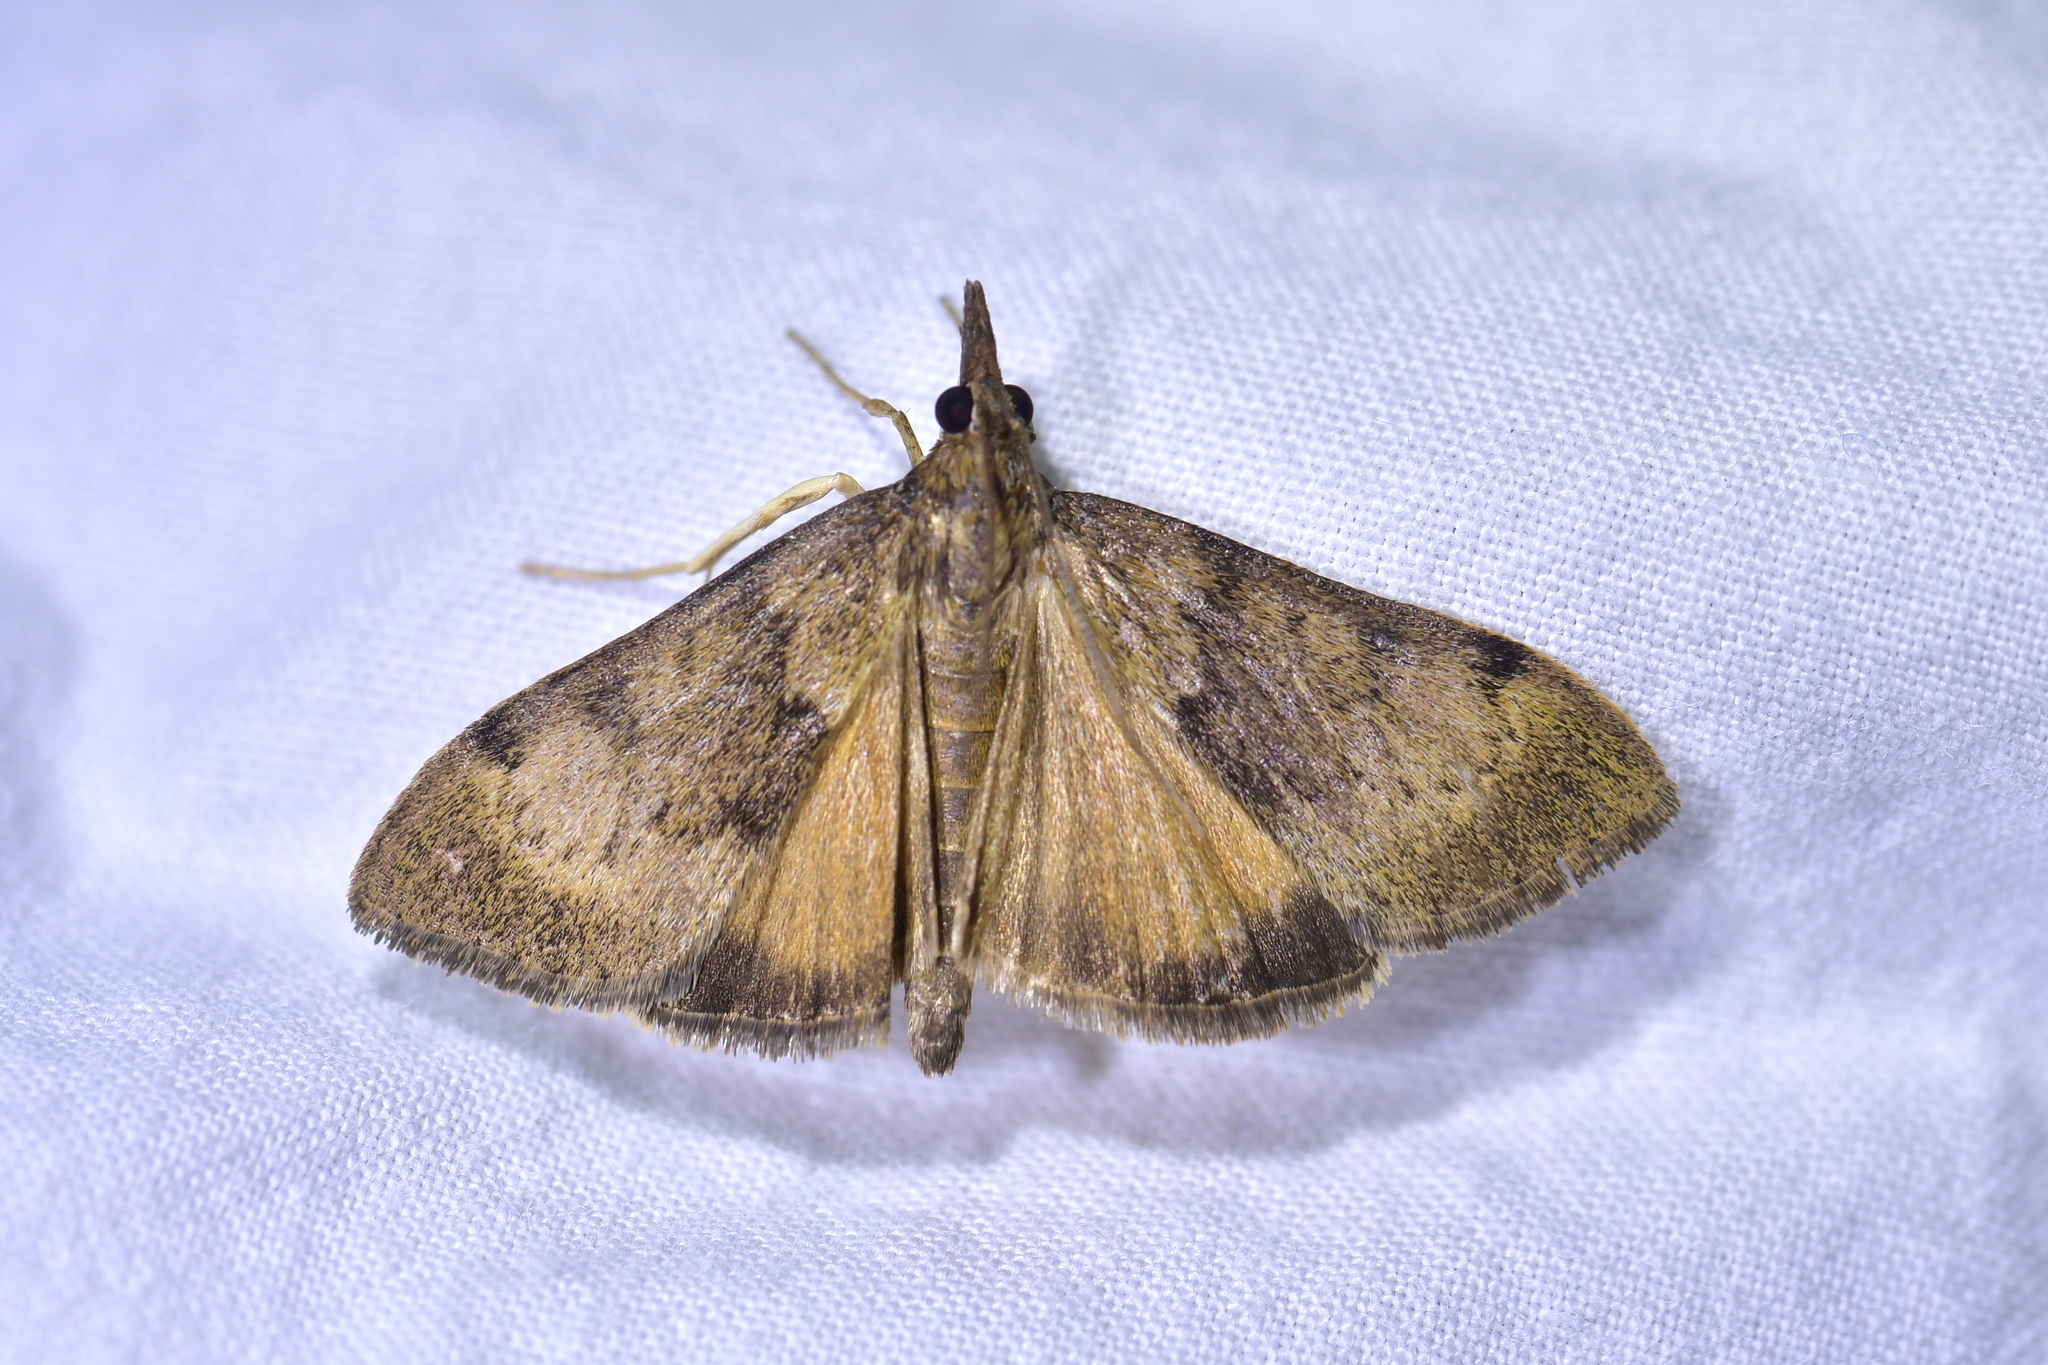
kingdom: Animalia
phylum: Arthropoda
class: Insecta
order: Lepidoptera
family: Crambidae
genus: Uresiphita
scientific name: Uresiphita
